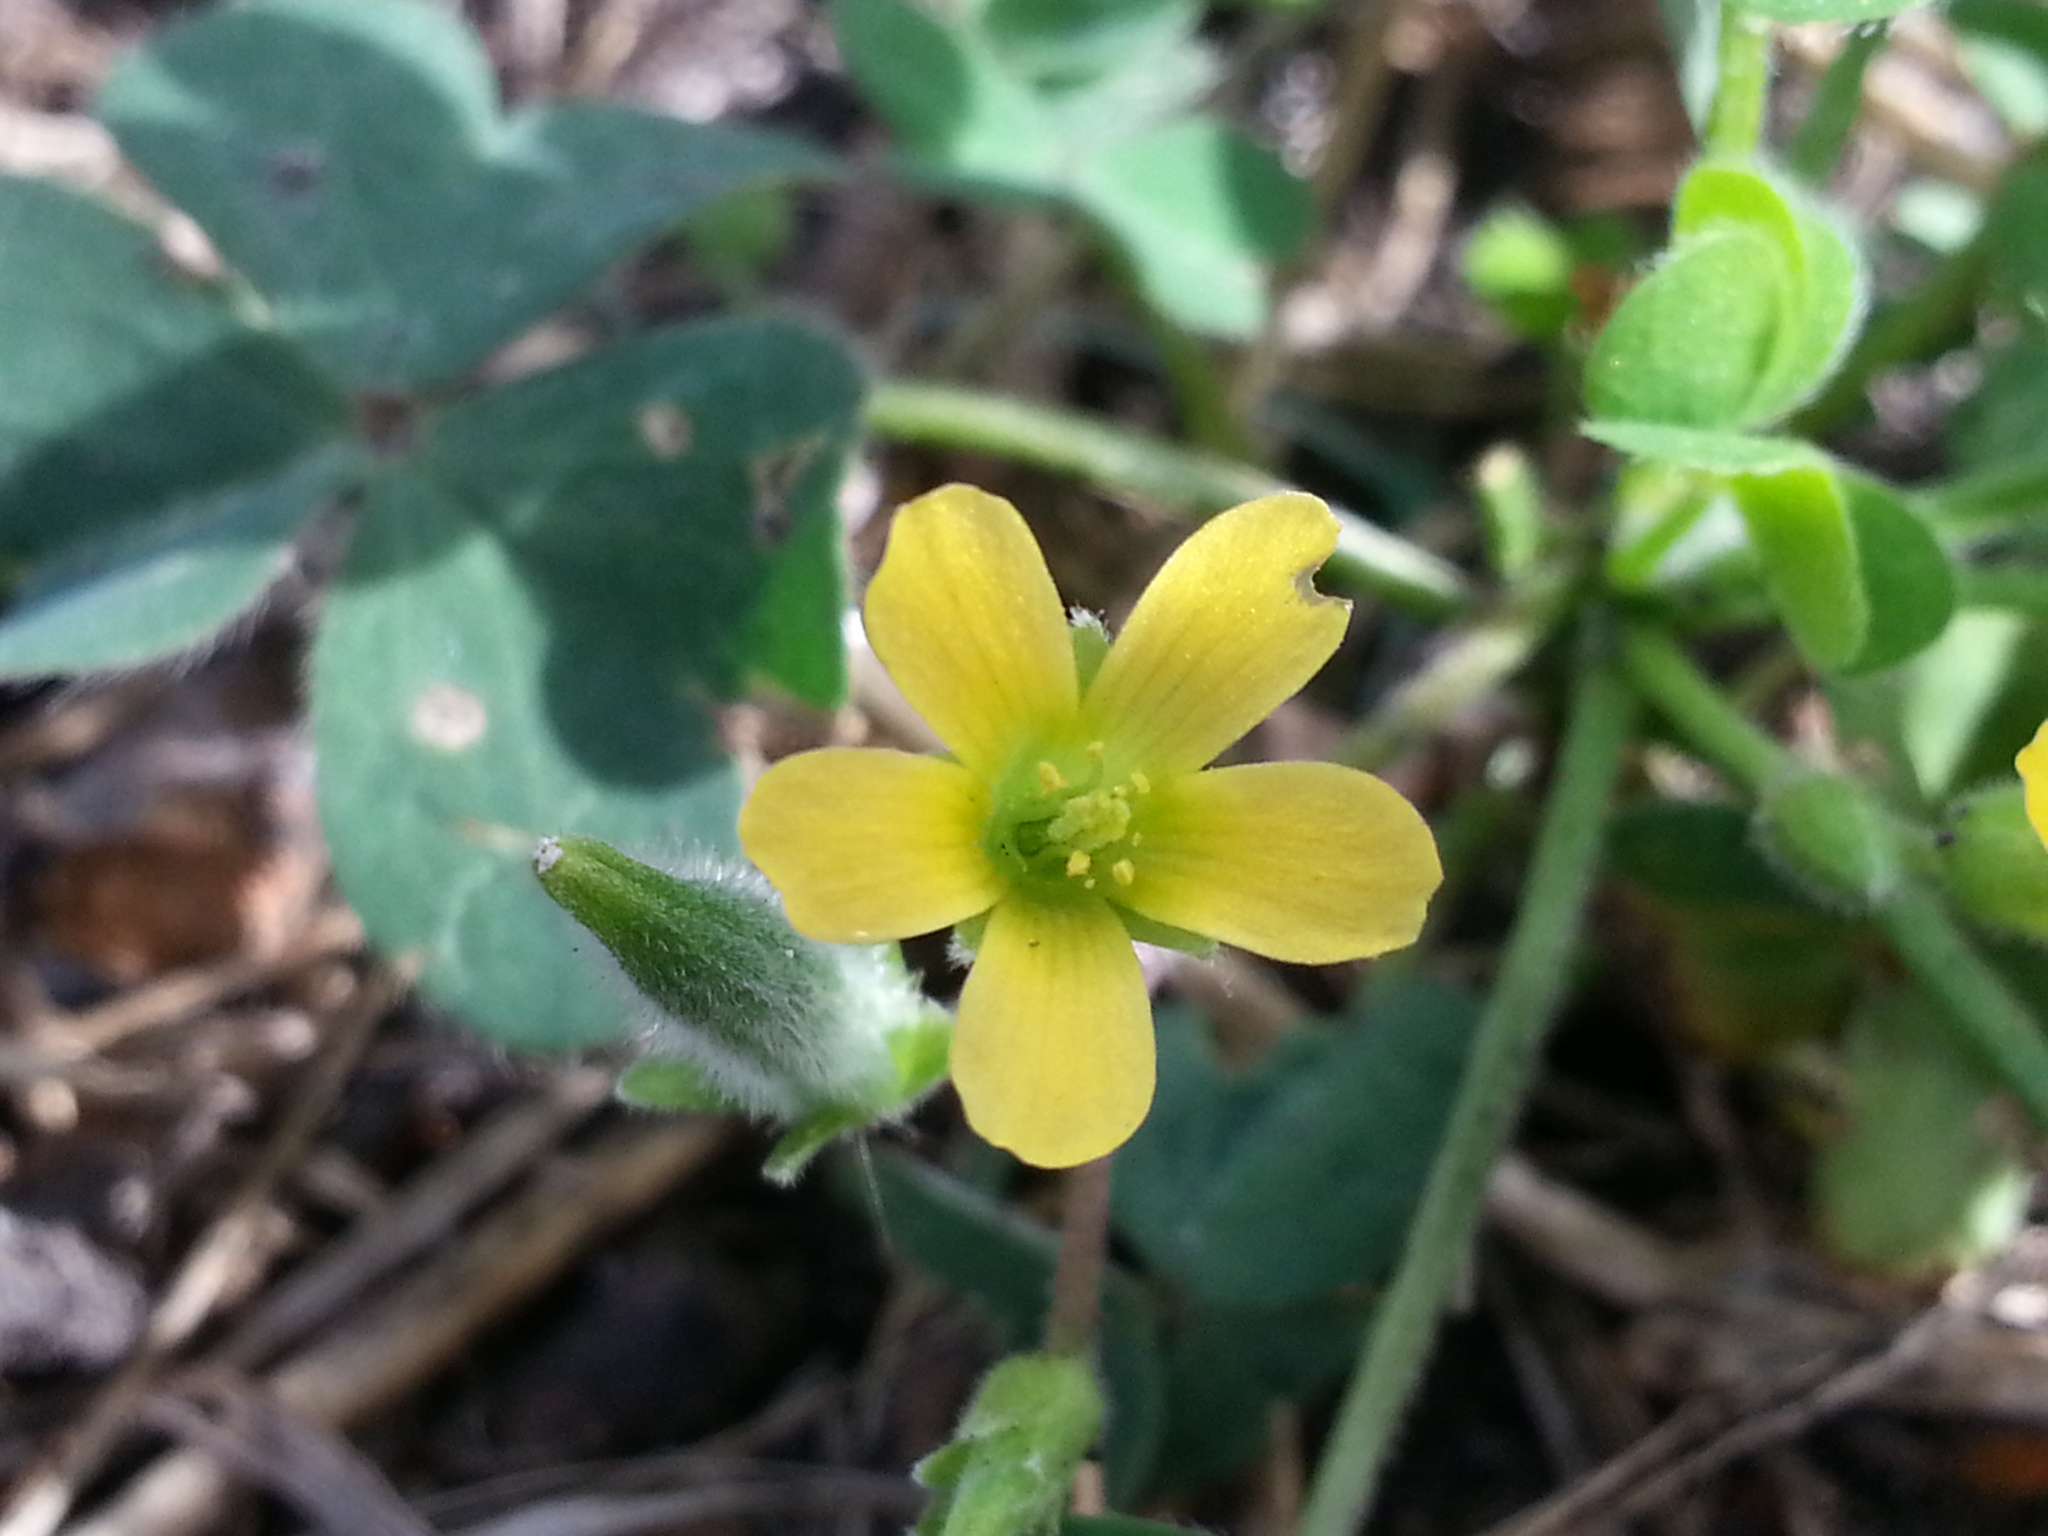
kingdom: Plantae
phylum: Tracheophyta
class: Magnoliopsida
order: Oxalidales
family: Oxalidaceae
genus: Oxalis
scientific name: Oxalis corniculata
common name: Procumbent yellow-sorrel
